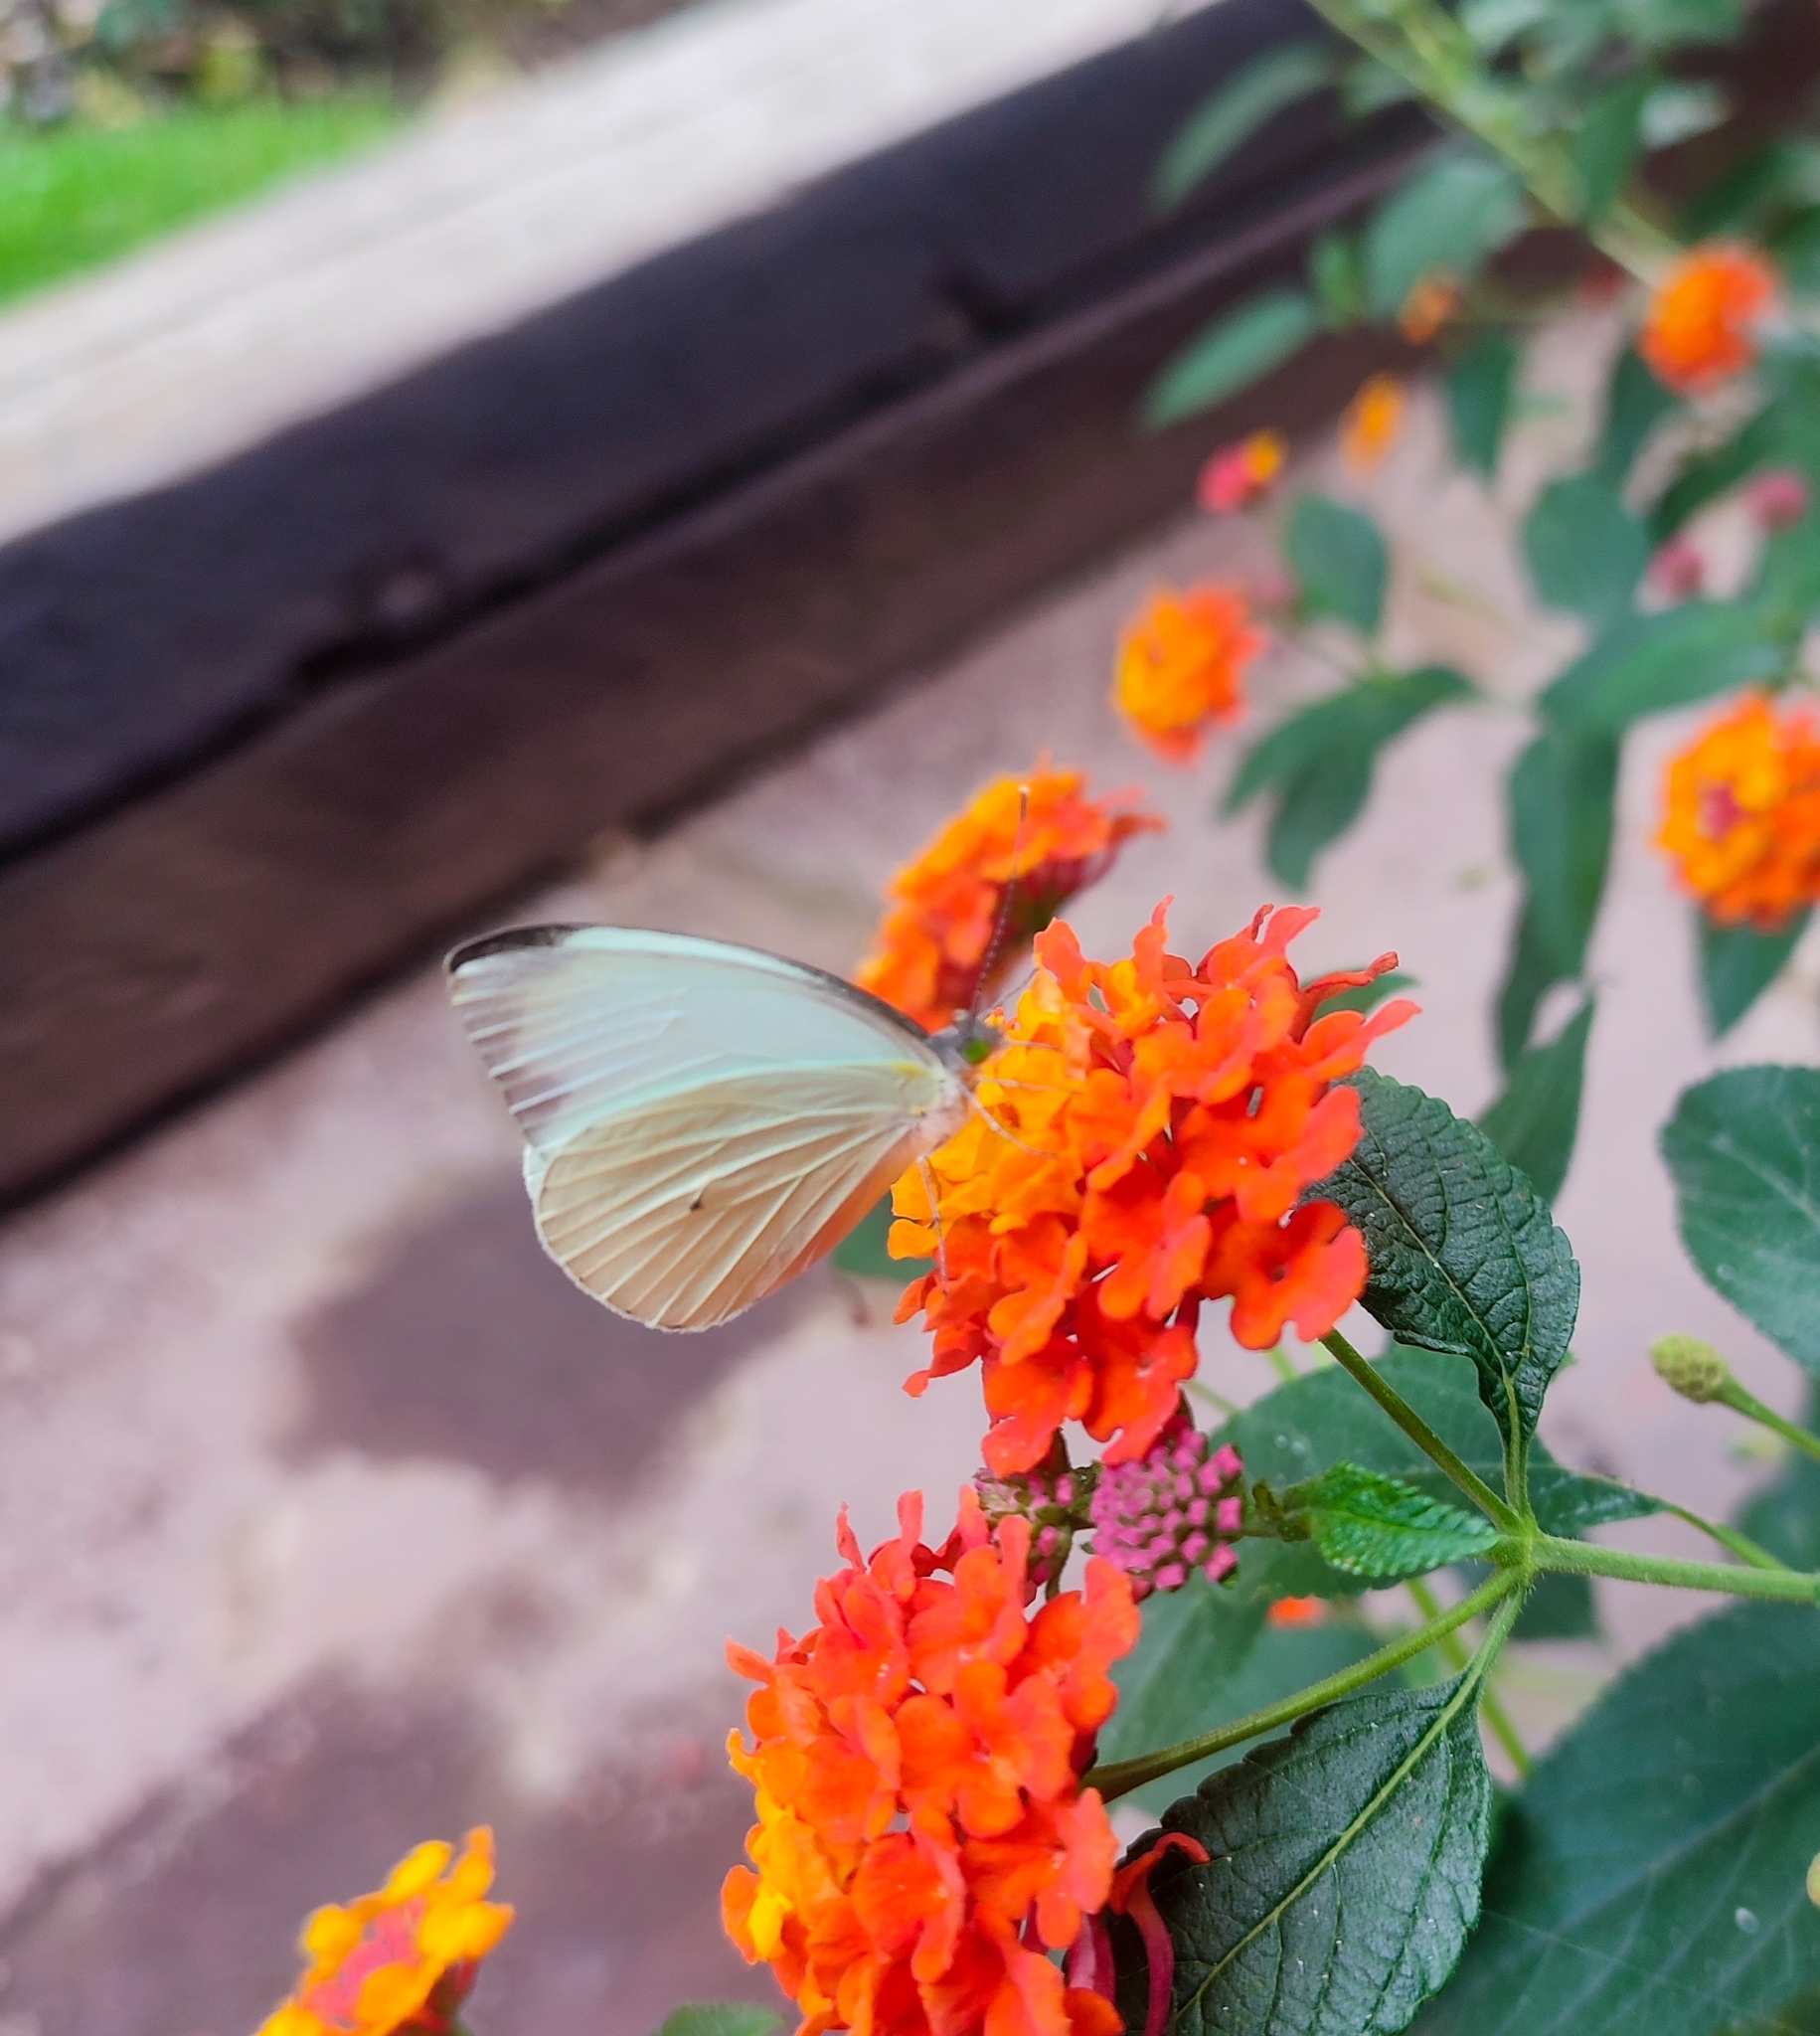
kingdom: Animalia
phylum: Arthropoda
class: Insecta
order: Lepidoptera
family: Pieridae
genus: Leptophobia
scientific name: Leptophobia aripa
